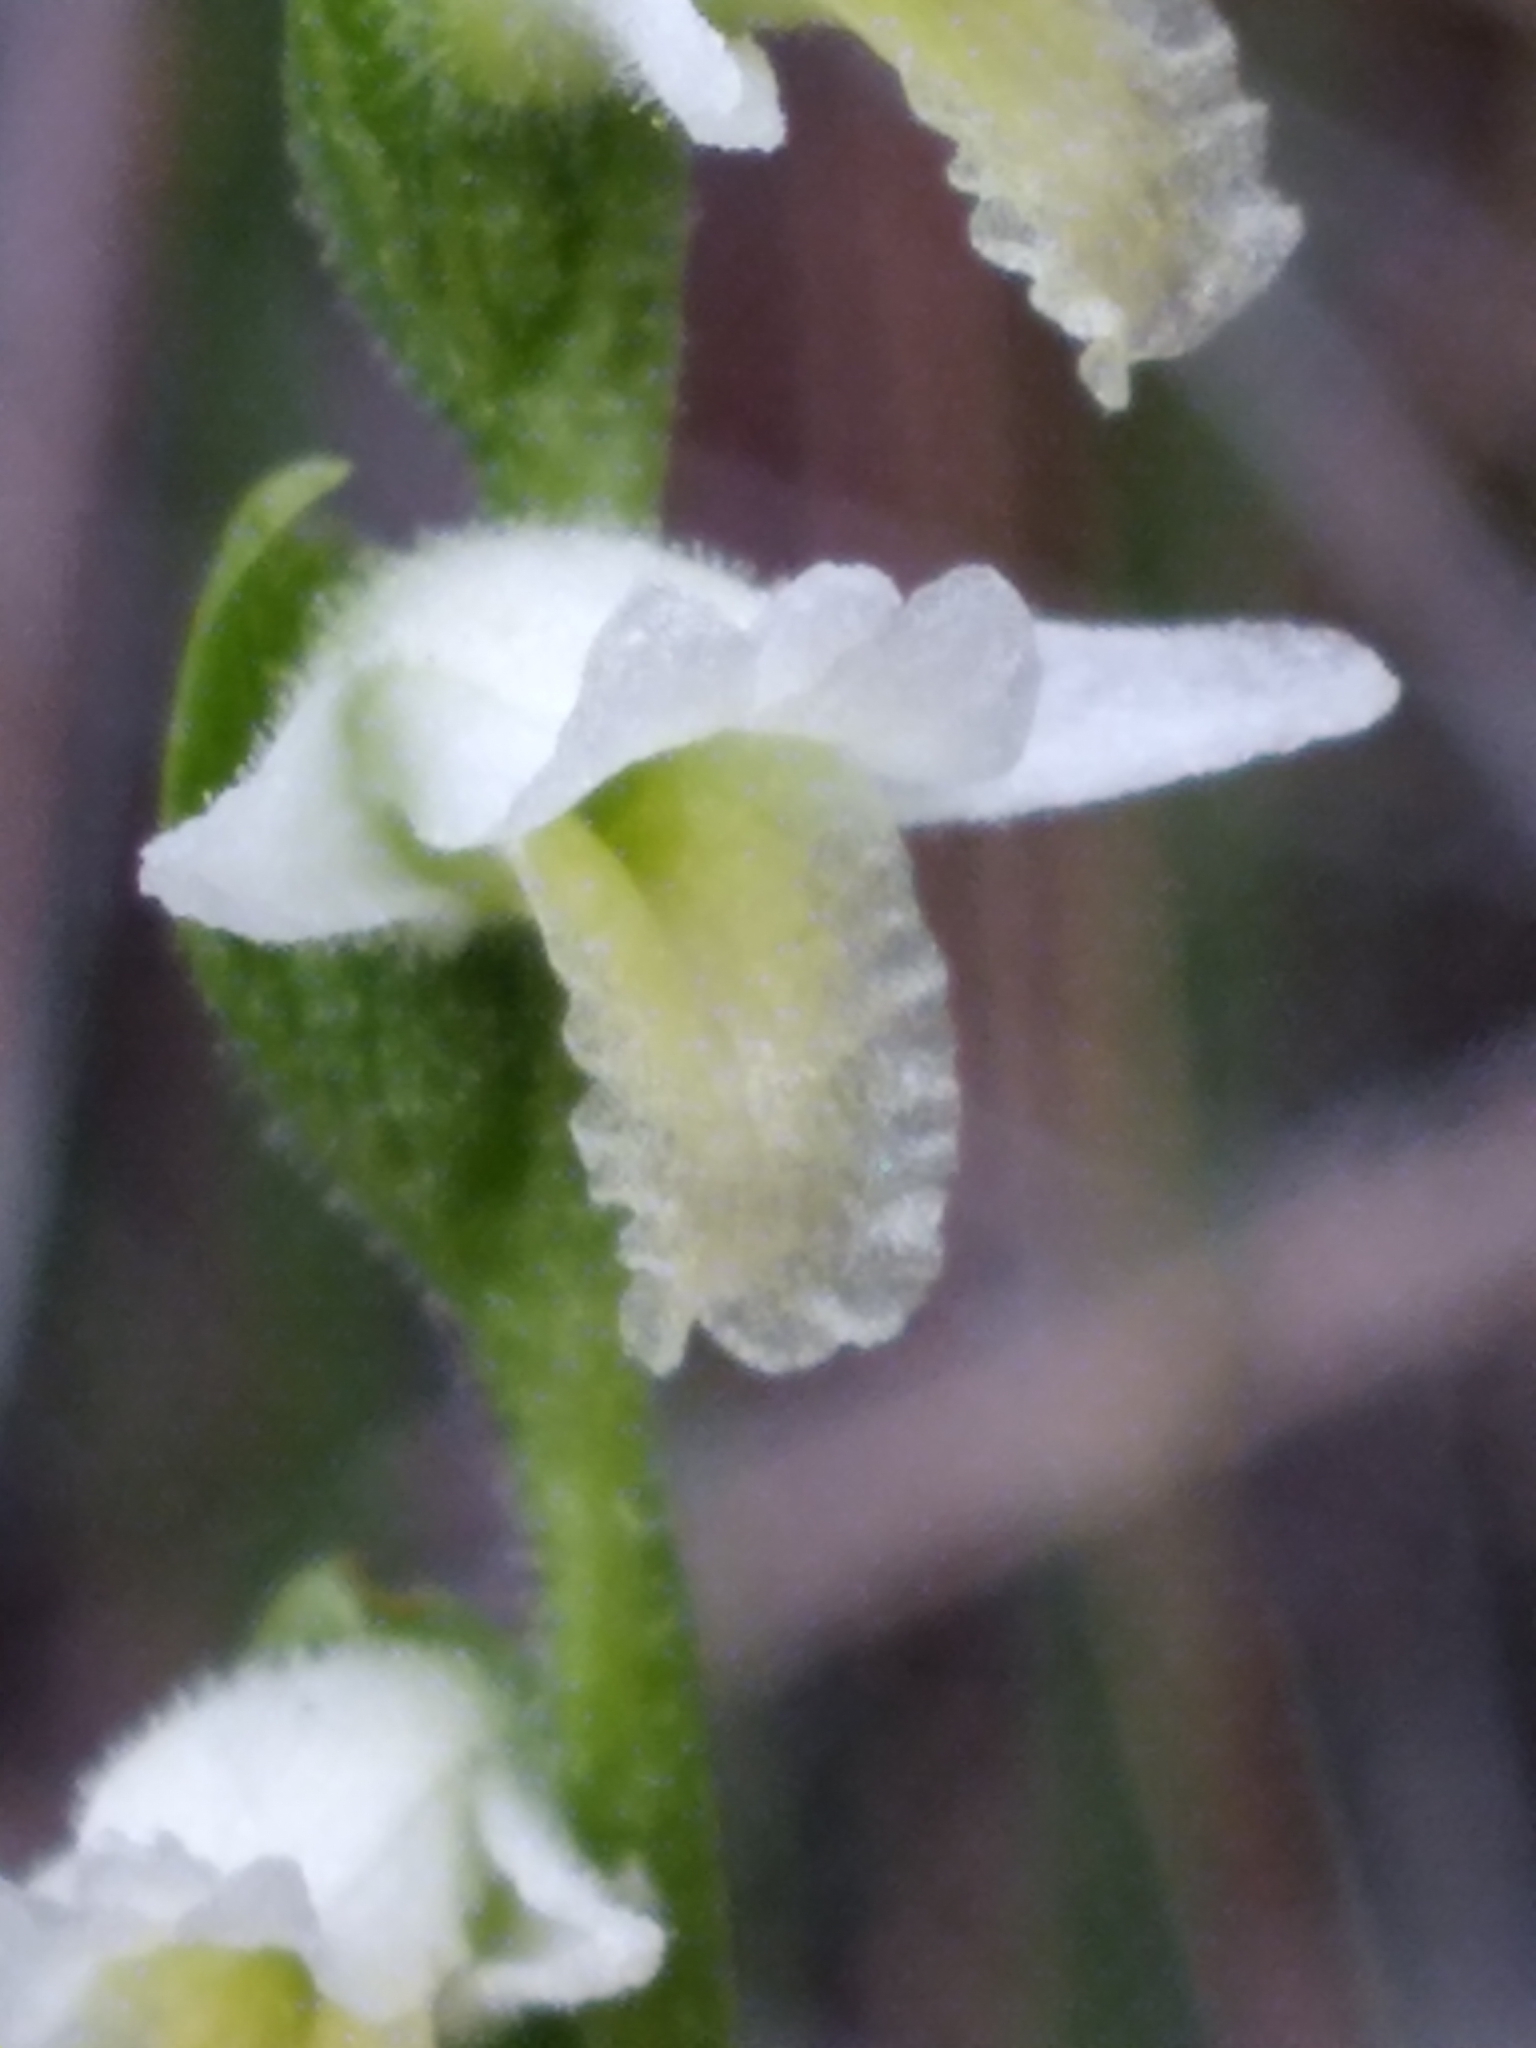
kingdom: Plantae
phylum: Tracheophyta
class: Liliopsida
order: Asparagales
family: Orchidaceae
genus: Spiranthes
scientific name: Spiranthes longilabris
